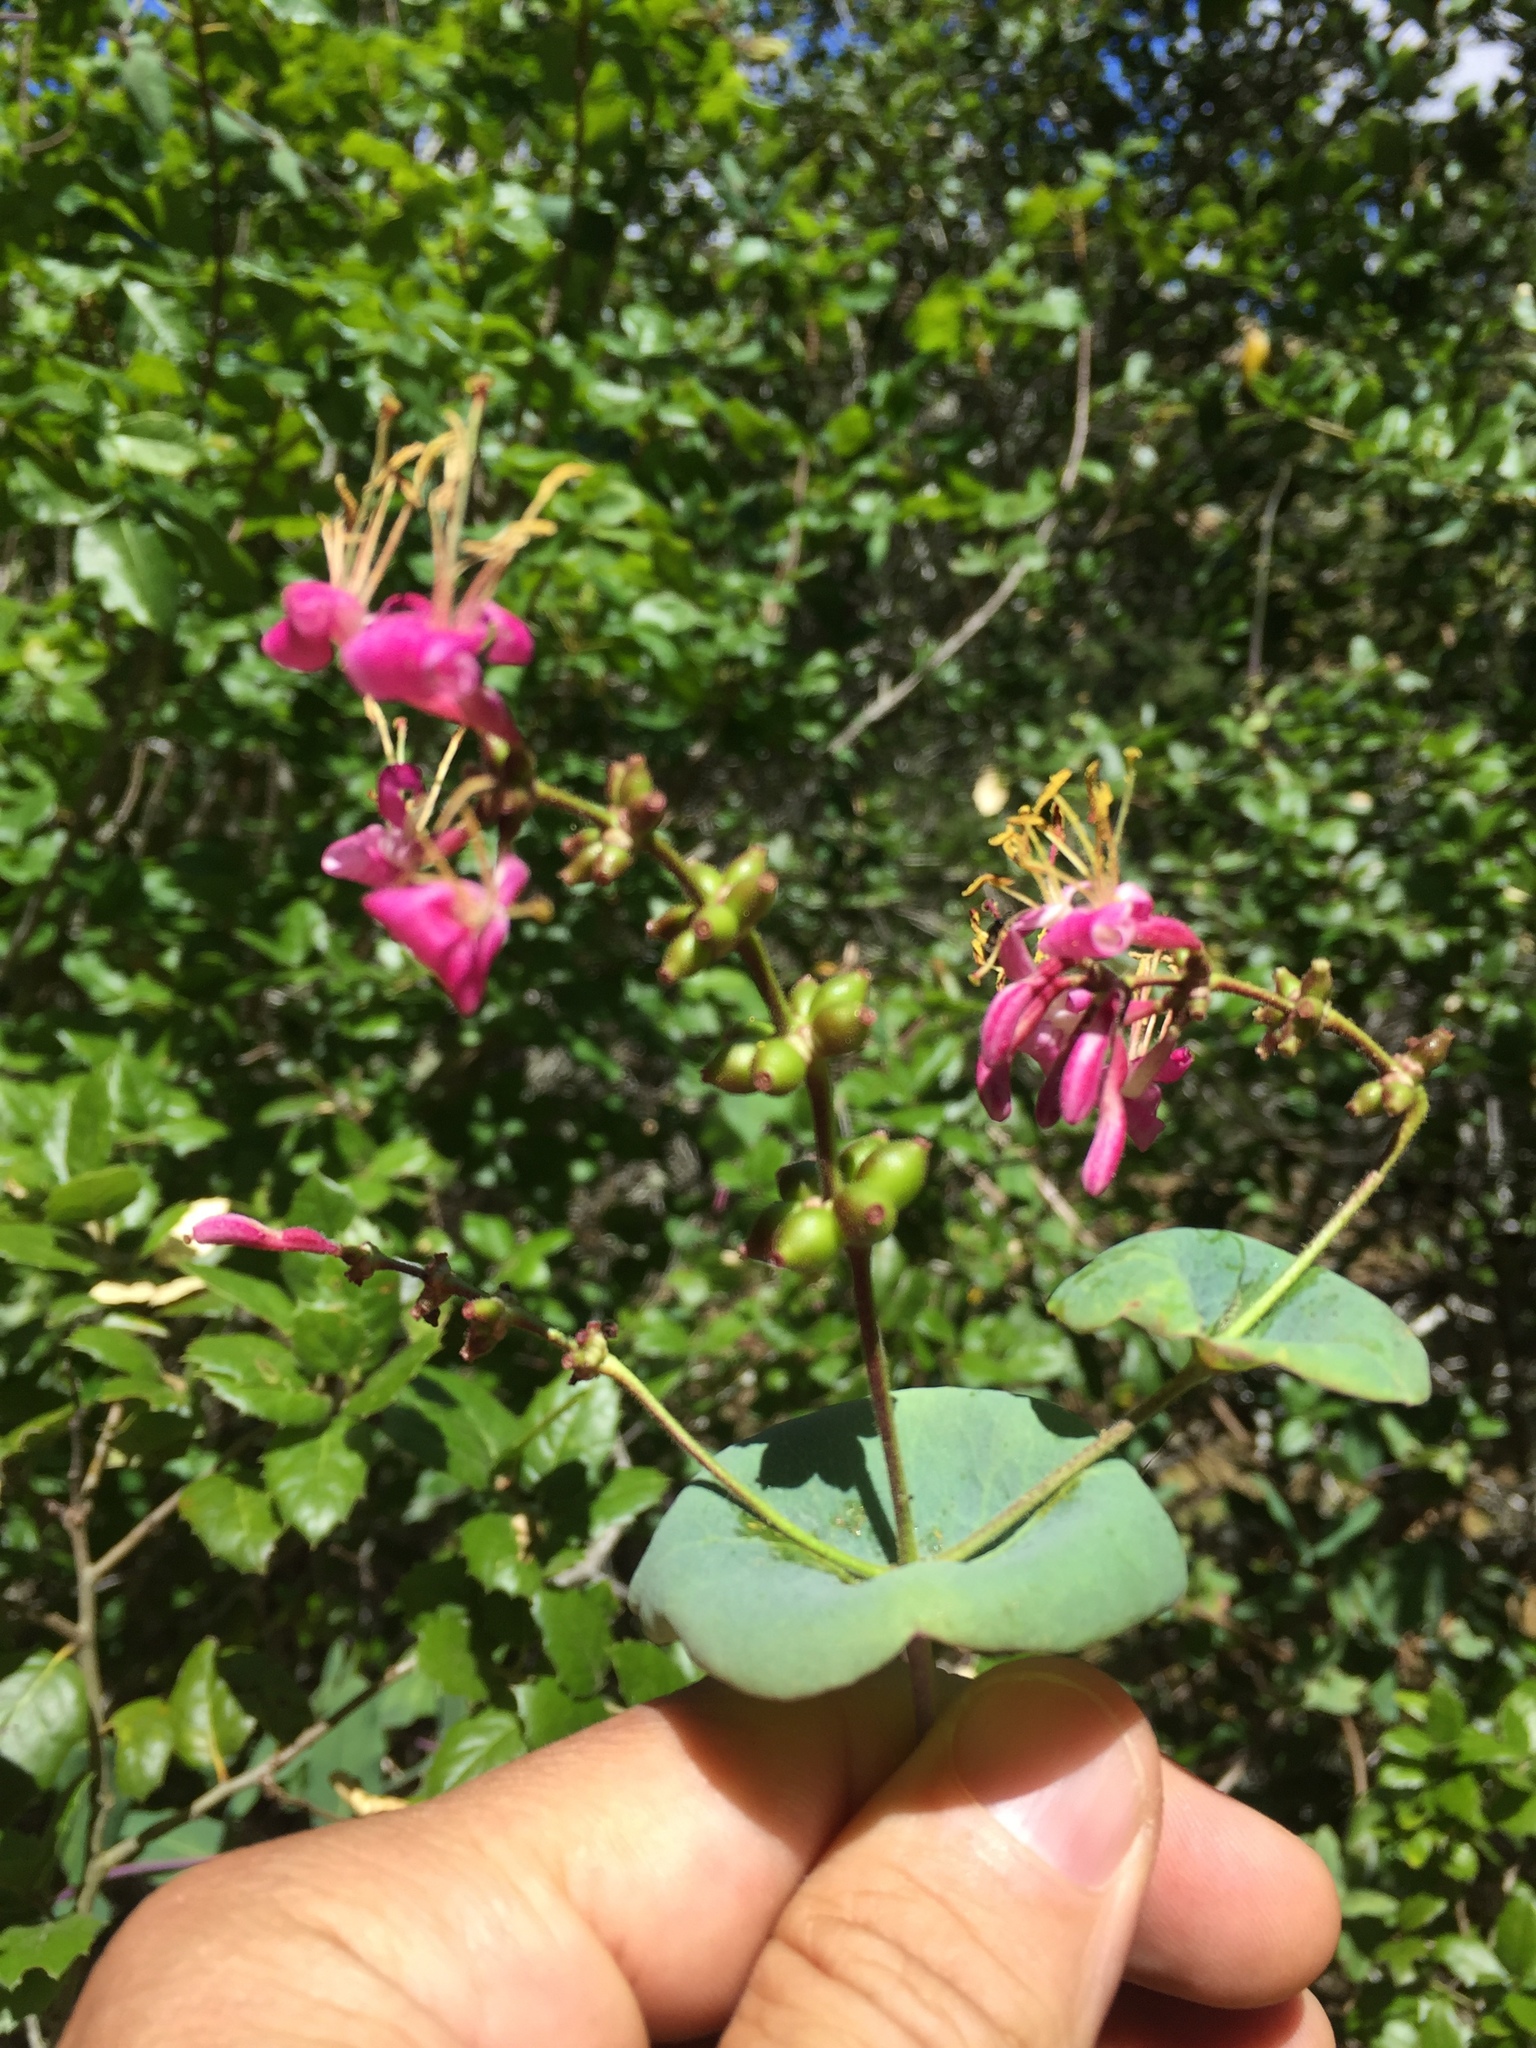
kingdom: Plantae
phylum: Tracheophyta
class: Magnoliopsida
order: Dipsacales
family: Caprifoliaceae
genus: Lonicera
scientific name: Lonicera hispidula
